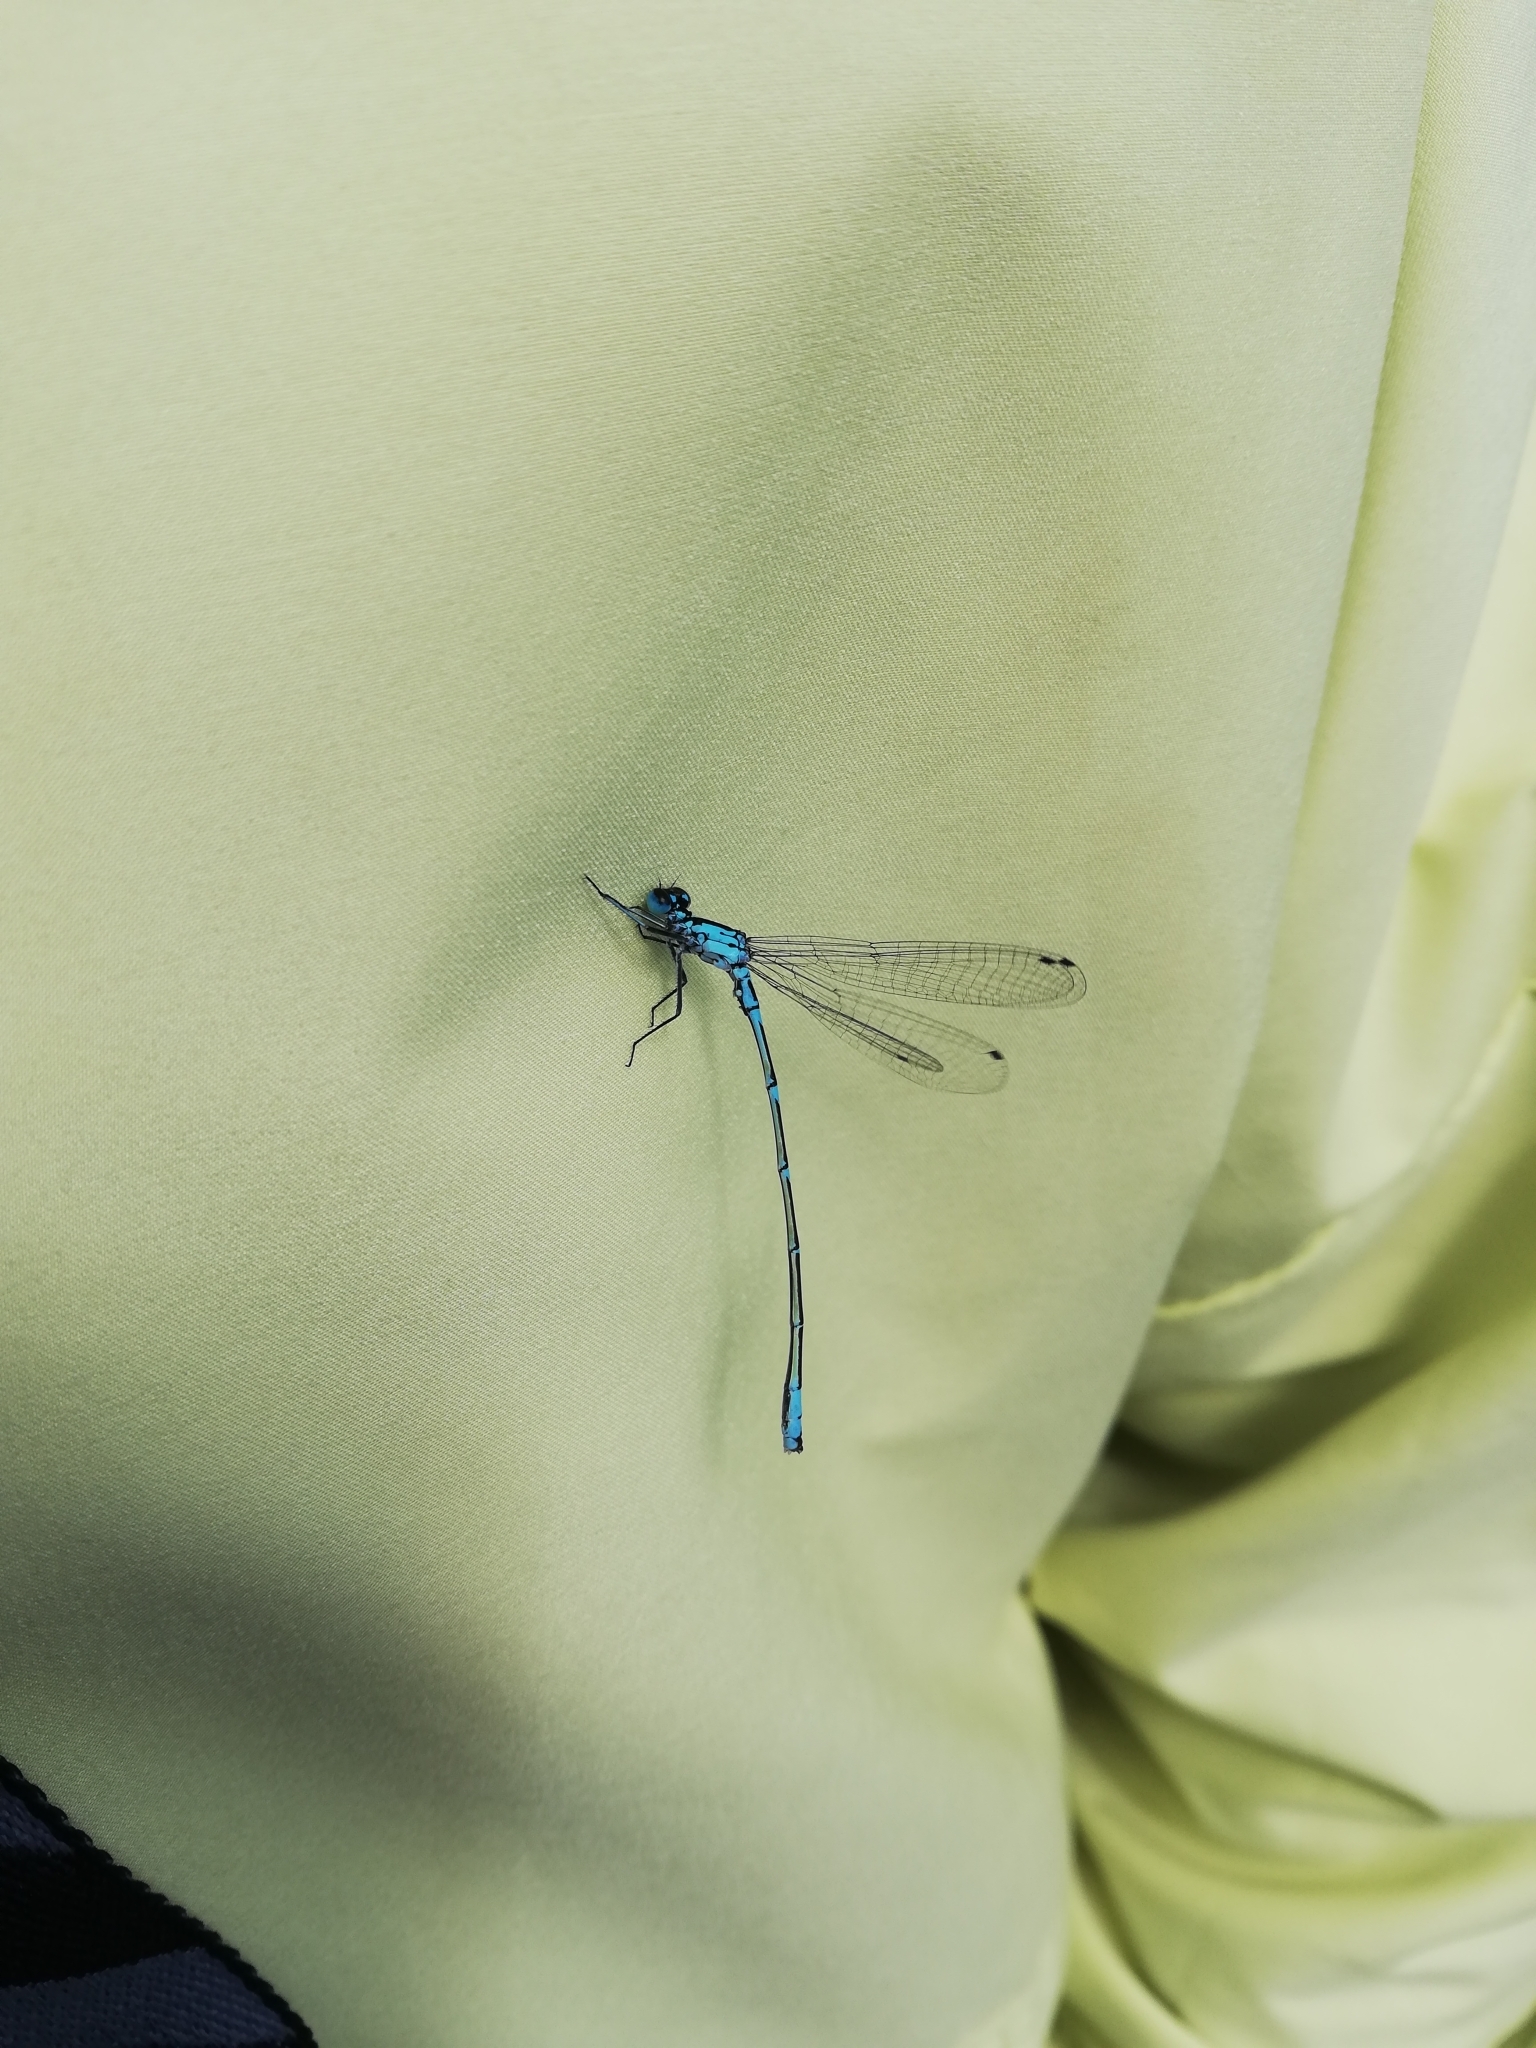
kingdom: Animalia
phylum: Arthropoda
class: Insecta
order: Odonata
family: Coenagrionidae
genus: Coenagrion
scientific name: Coenagrion pulchellum
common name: Variable bluet
